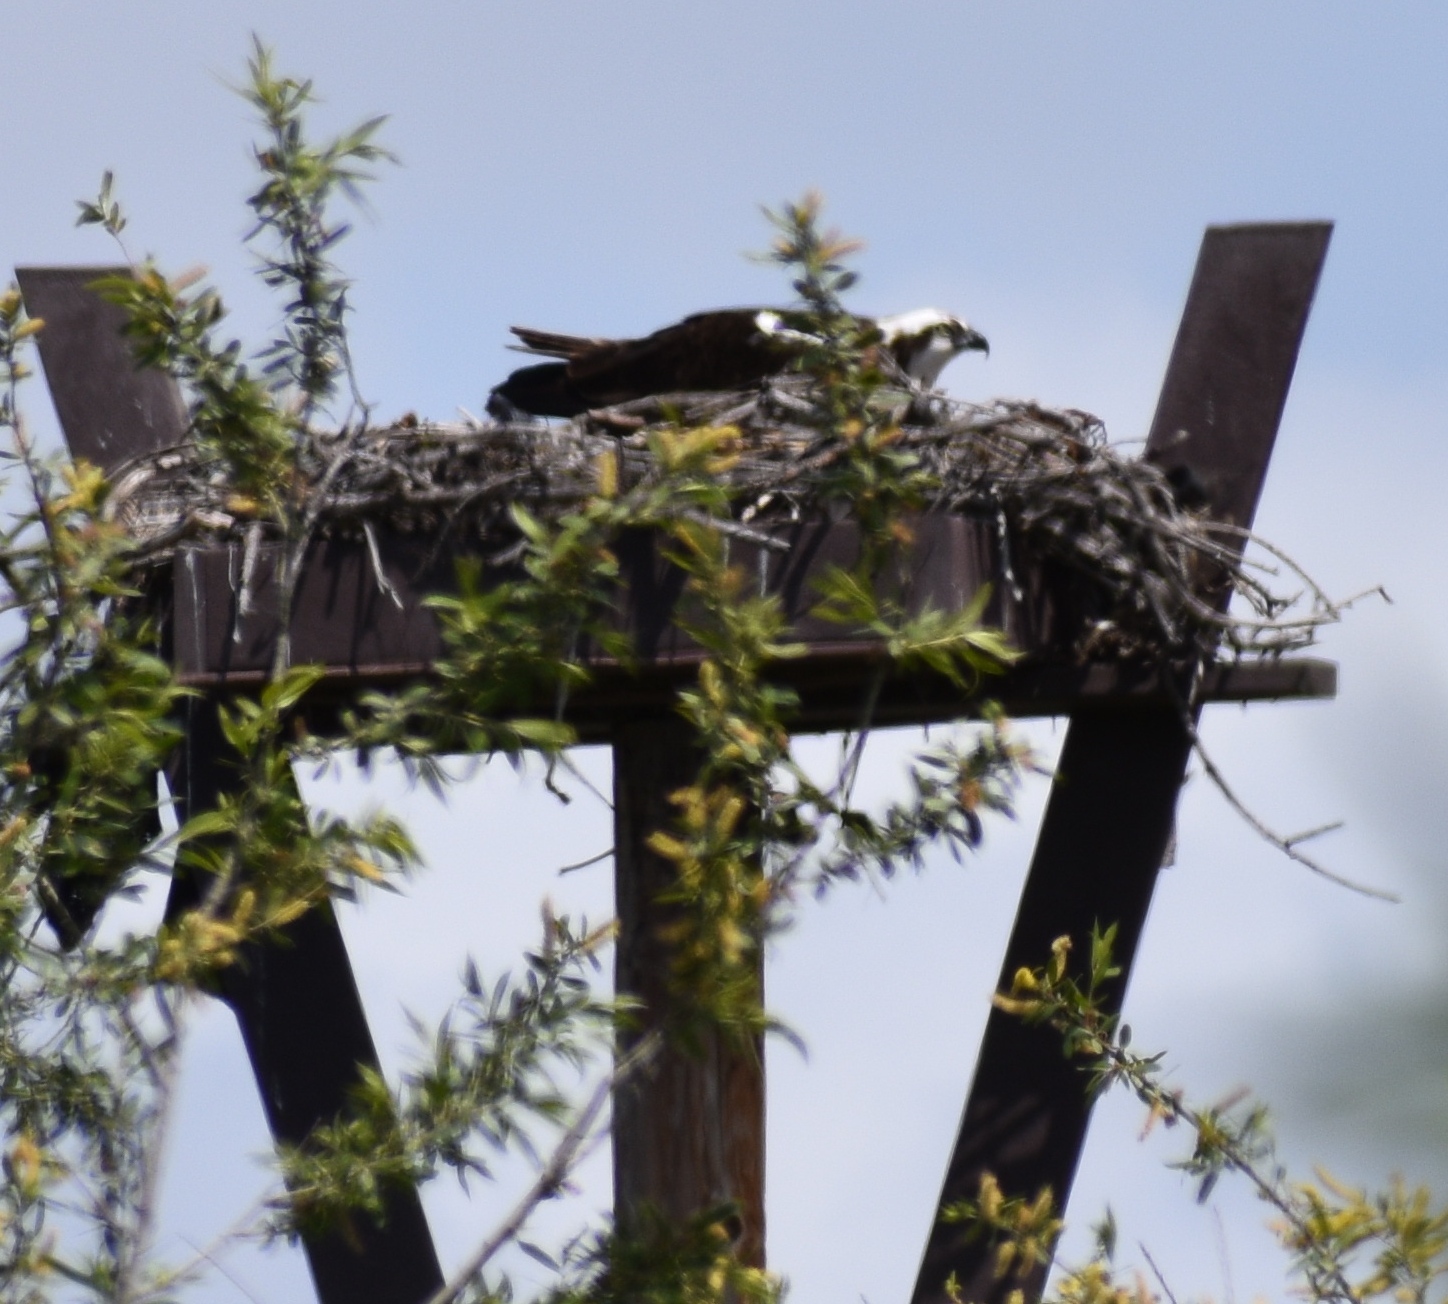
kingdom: Animalia
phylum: Chordata
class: Aves
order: Accipitriformes
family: Pandionidae
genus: Pandion
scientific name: Pandion haliaetus
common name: Osprey
